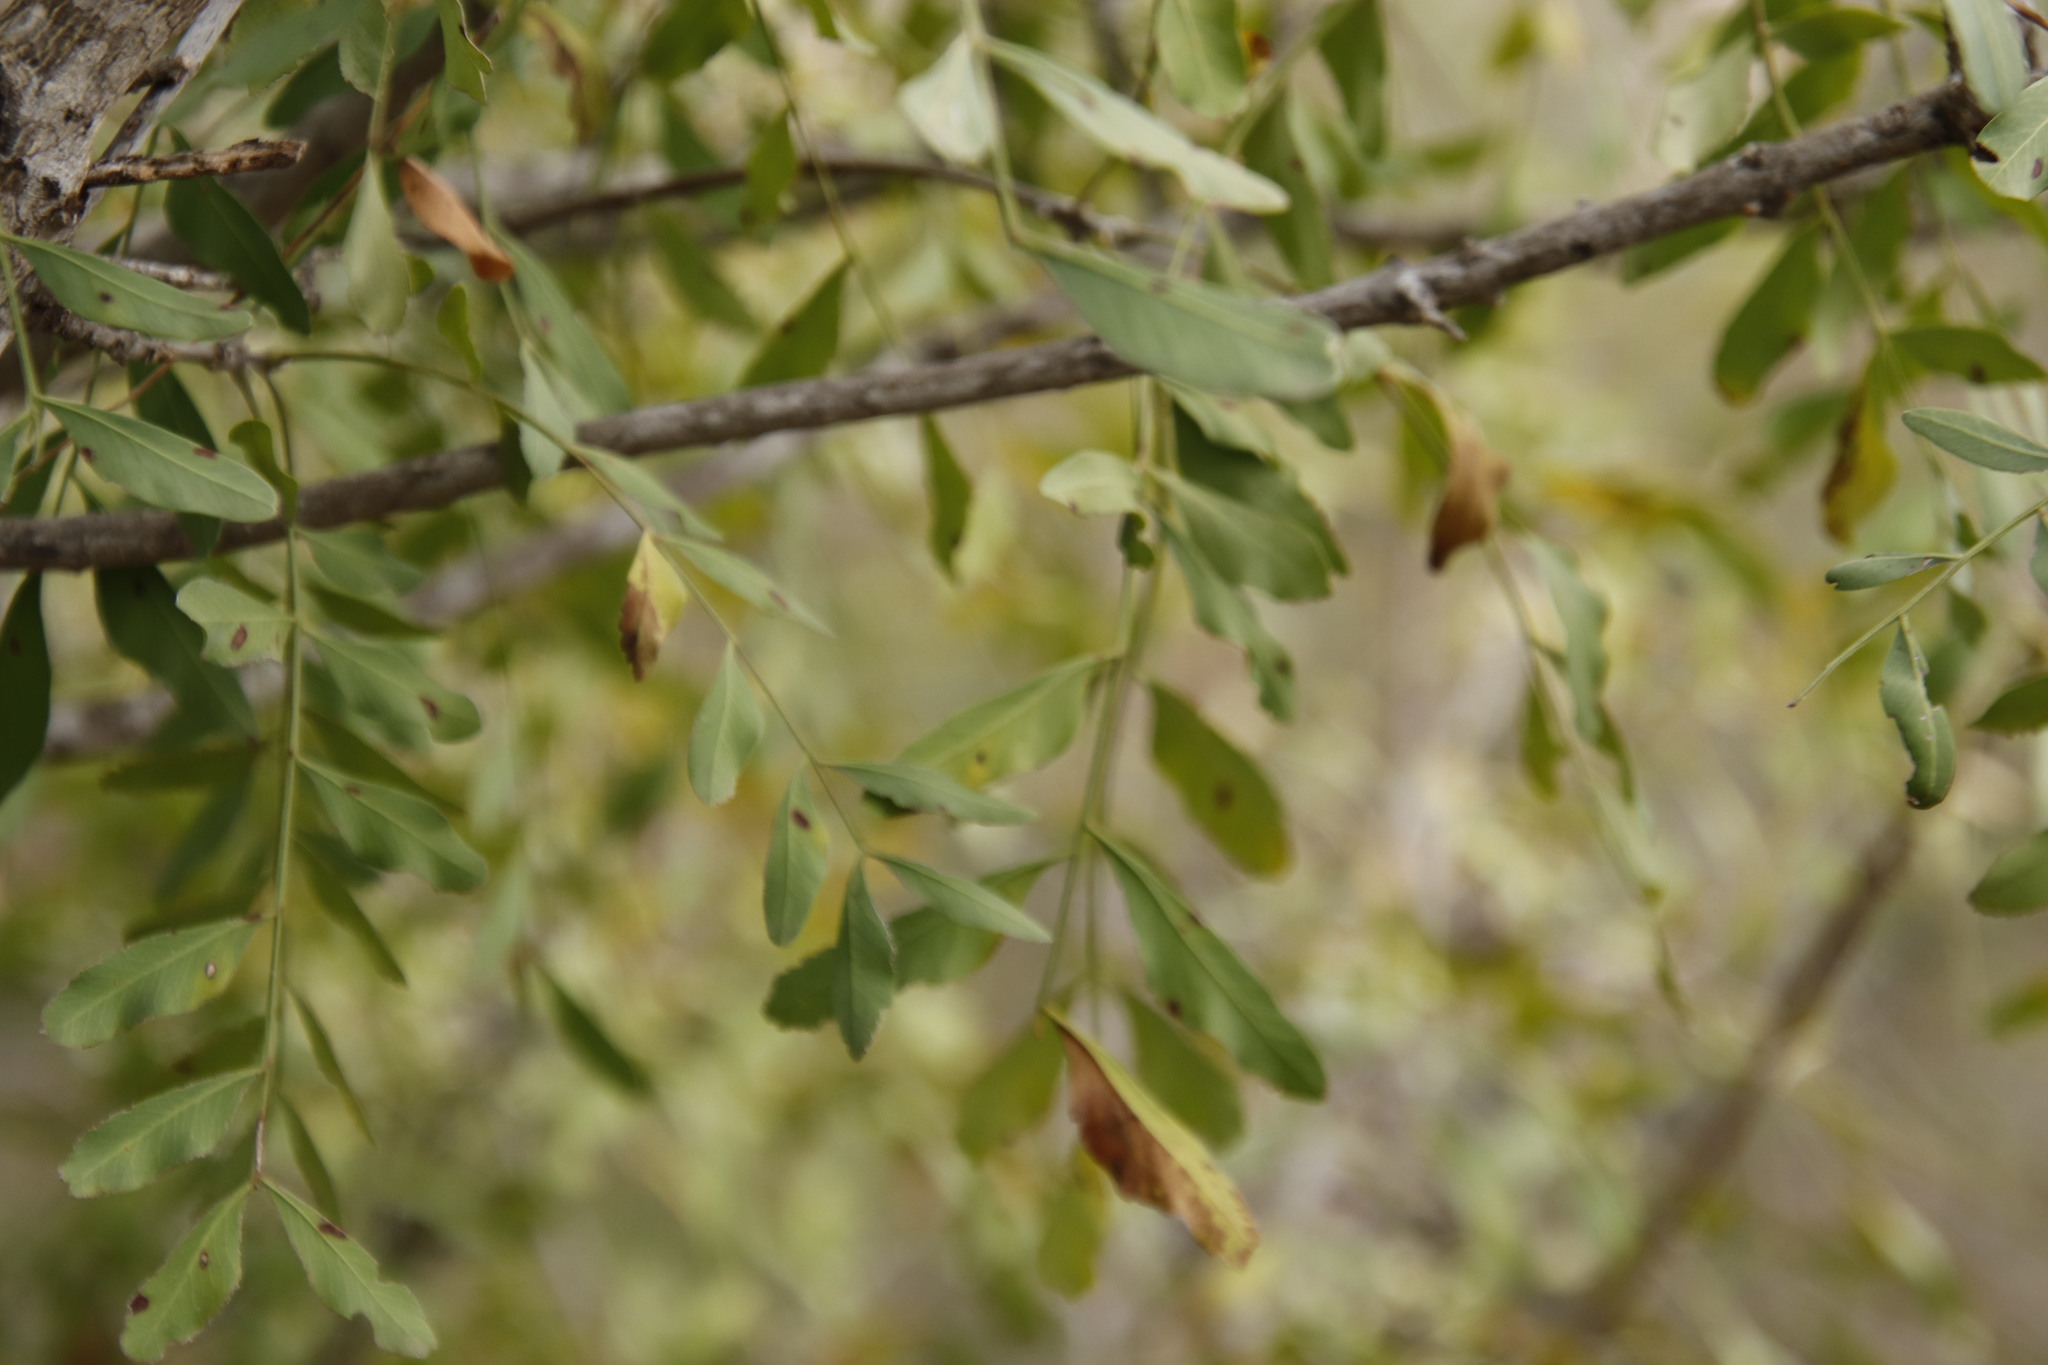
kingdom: Plantae
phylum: Tracheophyta
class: Magnoliopsida
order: Sapindales
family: Rutaceae
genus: Ptaeroxylon
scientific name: Ptaeroxylon obliquum
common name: Sneezewood
